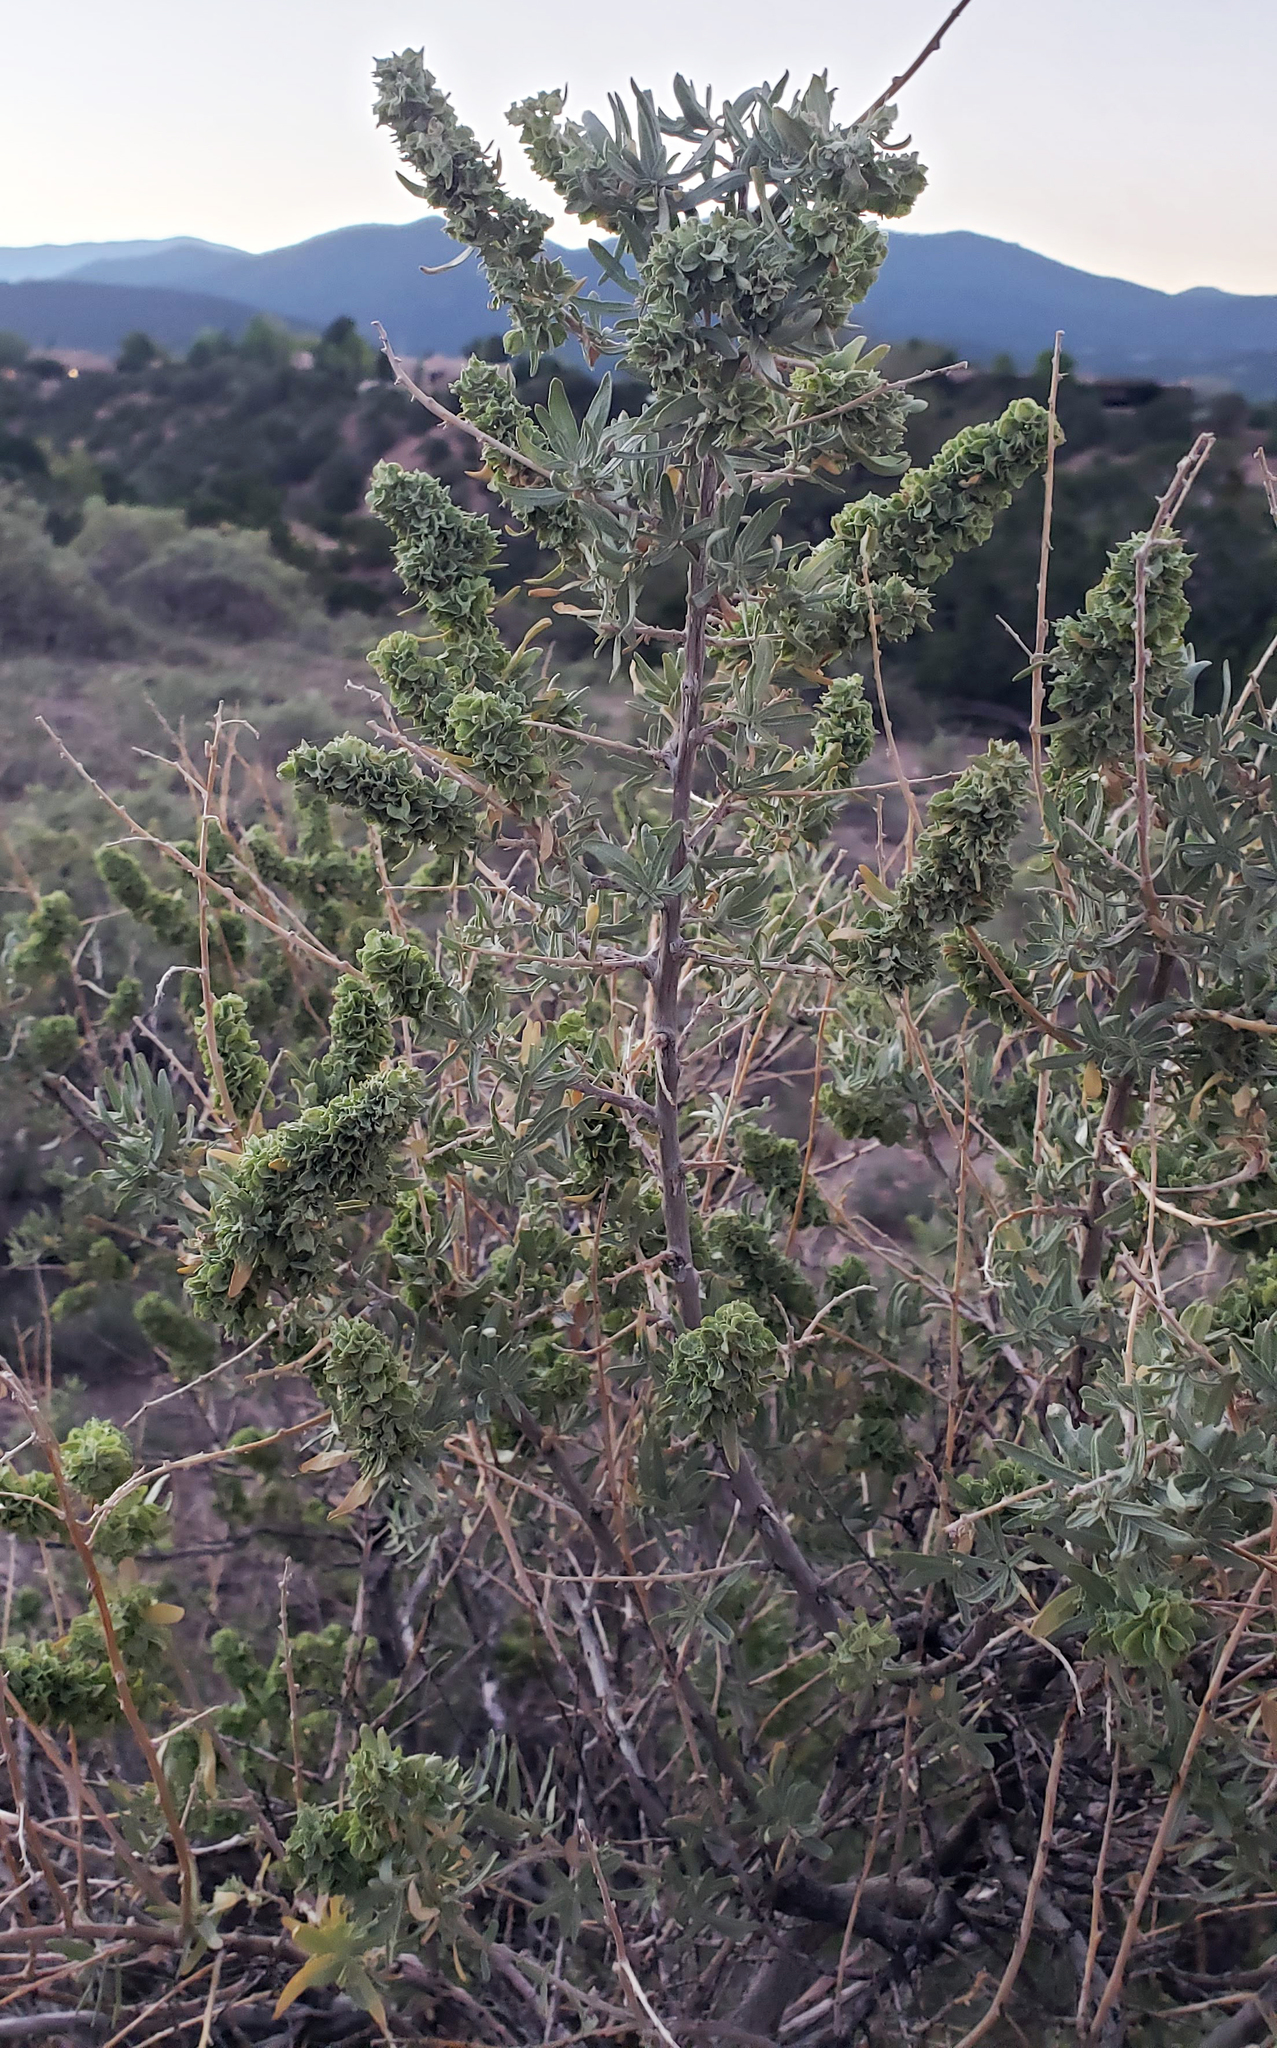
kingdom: Plantae
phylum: Tracheophyta
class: Magnoliopsida
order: Caryophyllales
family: Amaranthaceae
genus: Atriplex
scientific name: Atriplex canescens
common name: Four-wing saltbush
